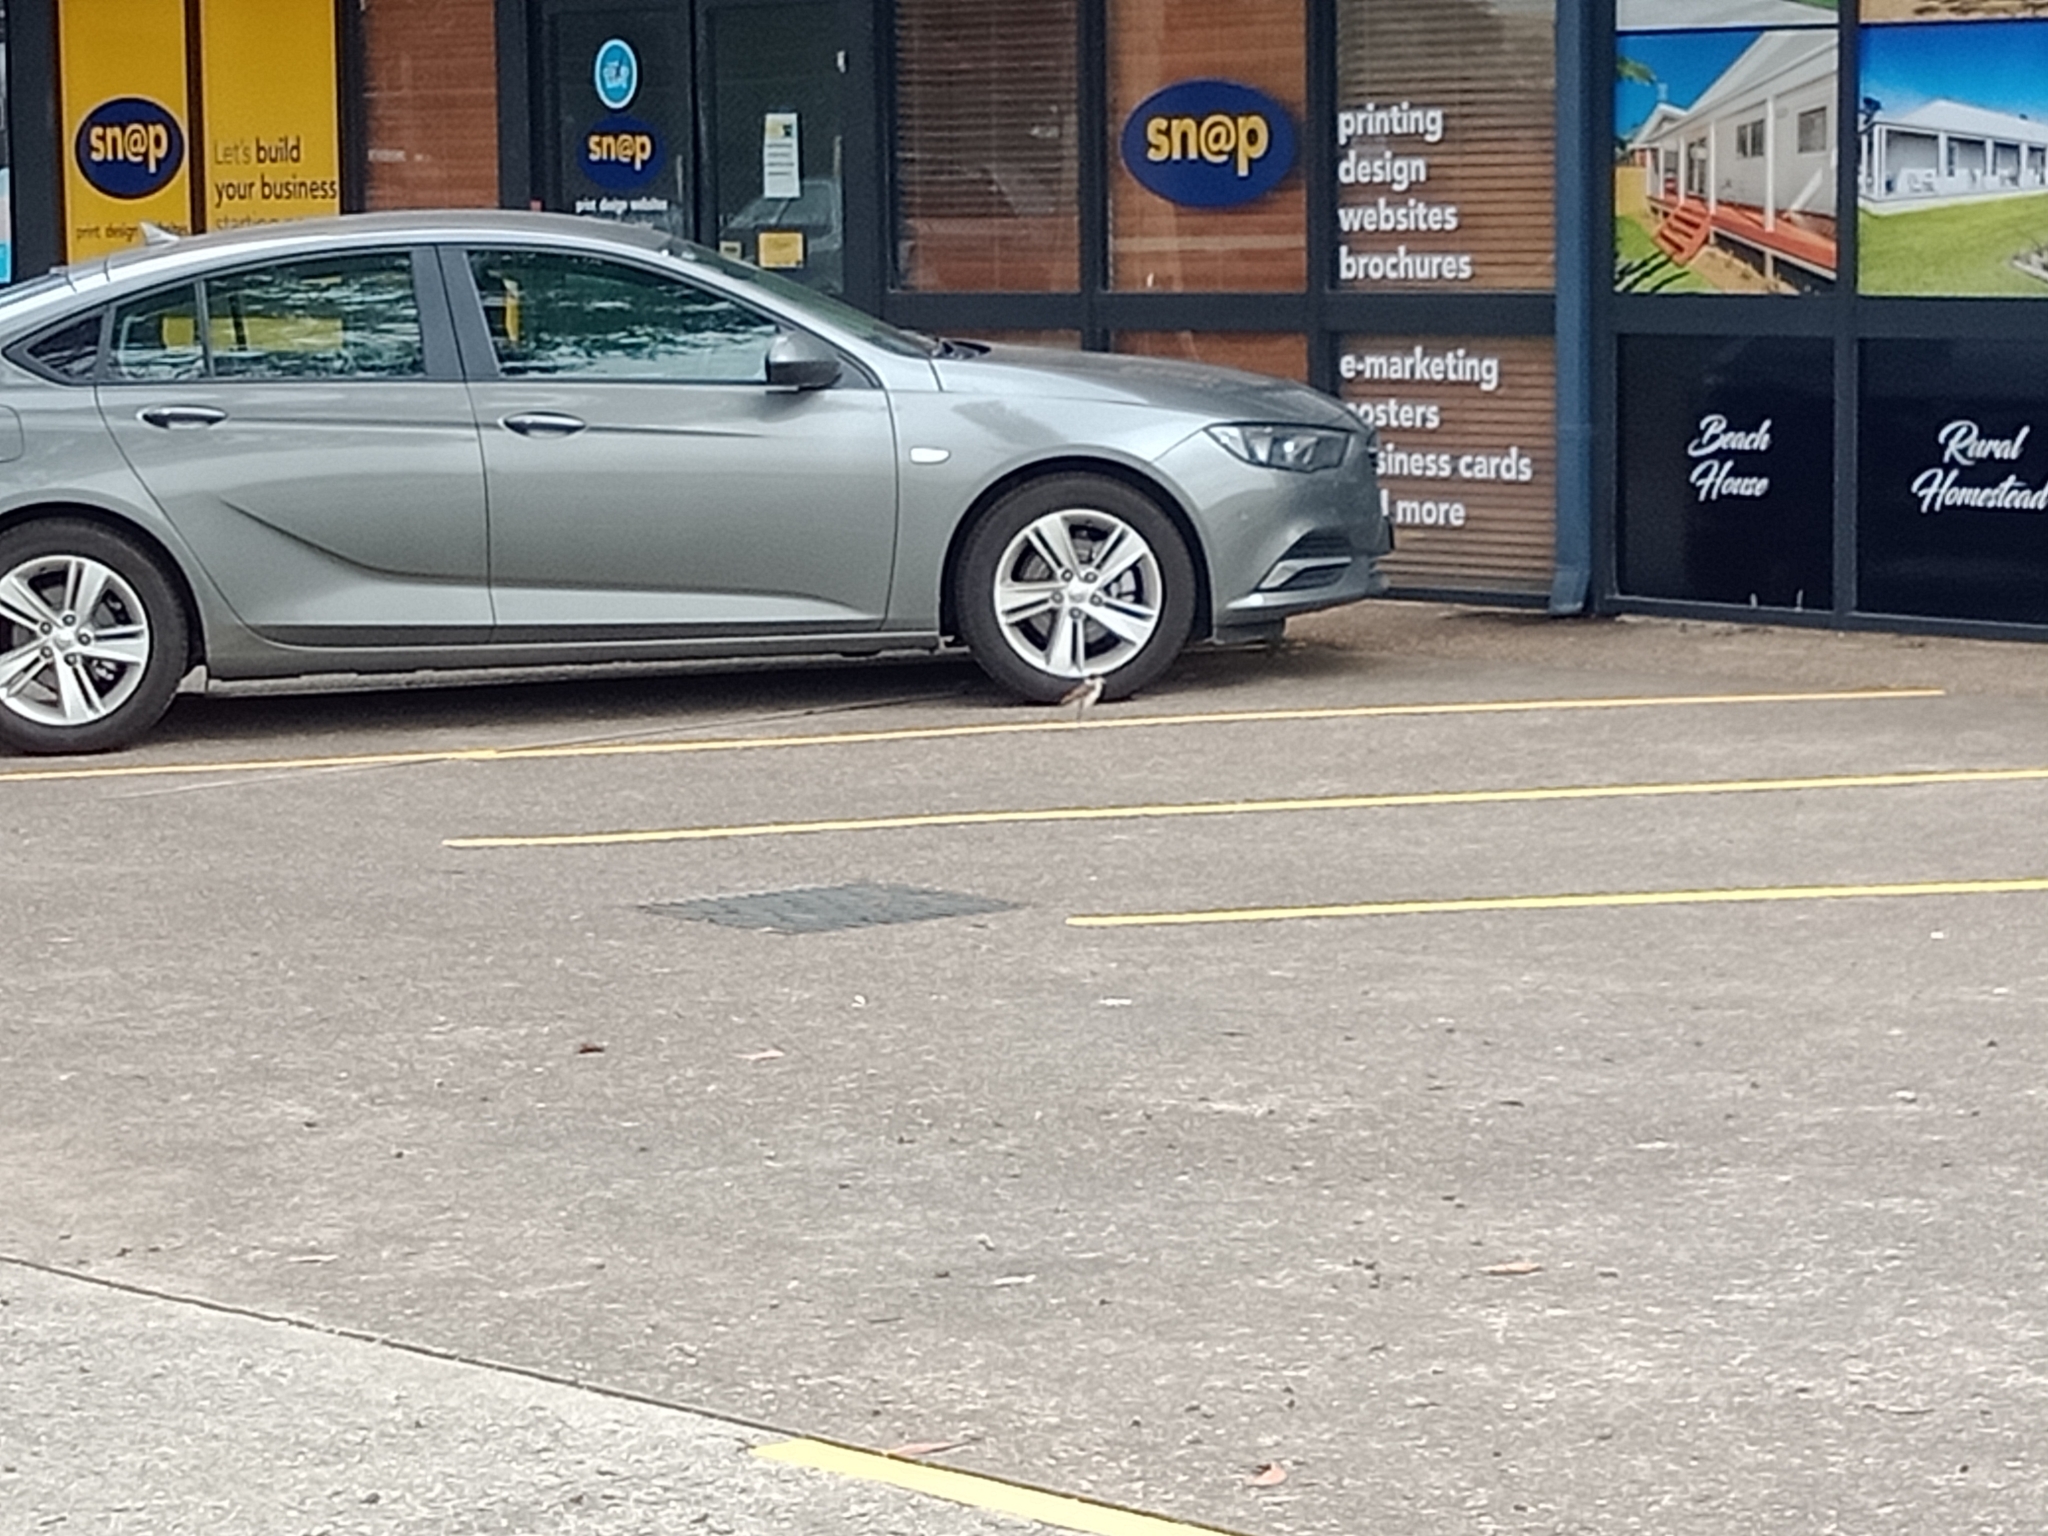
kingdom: Animalia
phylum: Chordata
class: Aves
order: Charadriiformes
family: Charadriidae
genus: Vanellus
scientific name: Vanellus miles
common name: Masked lapwing
